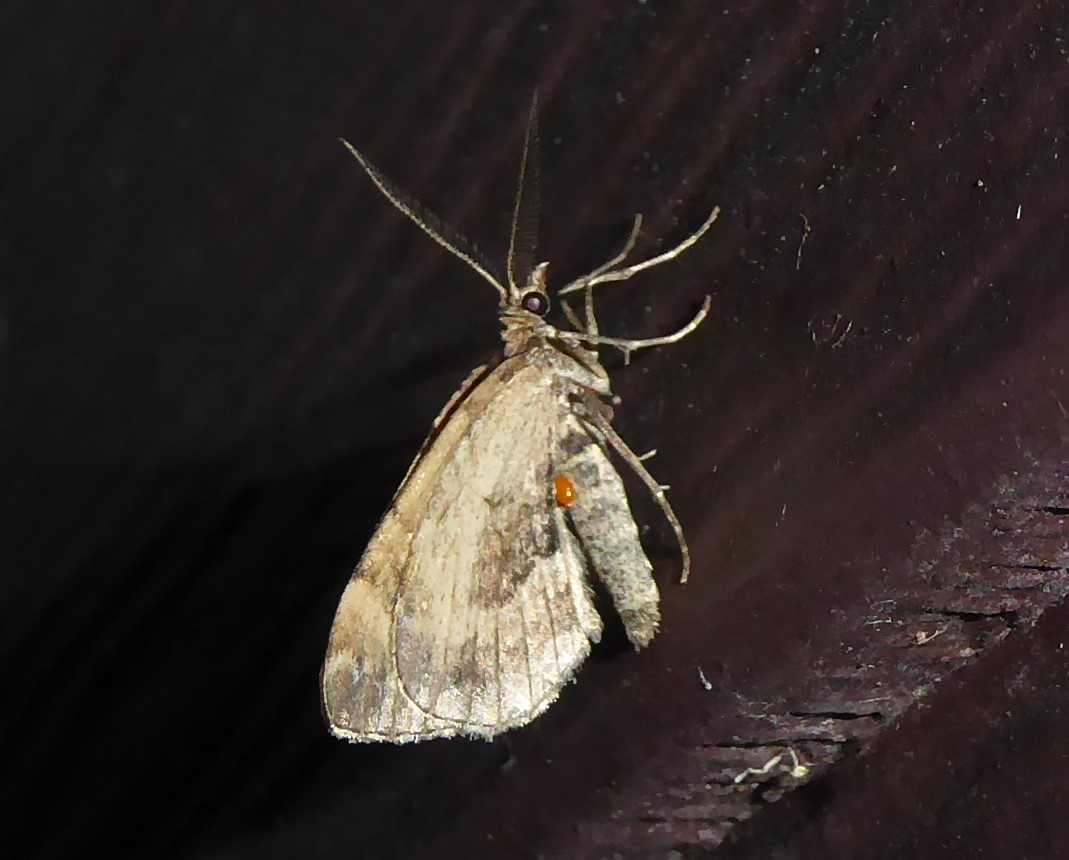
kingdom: Animalia
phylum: Arthropoda
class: Insecta
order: Lepidoptera
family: Geometridae
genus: Asaphodes
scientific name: Asaphodes aegrota
